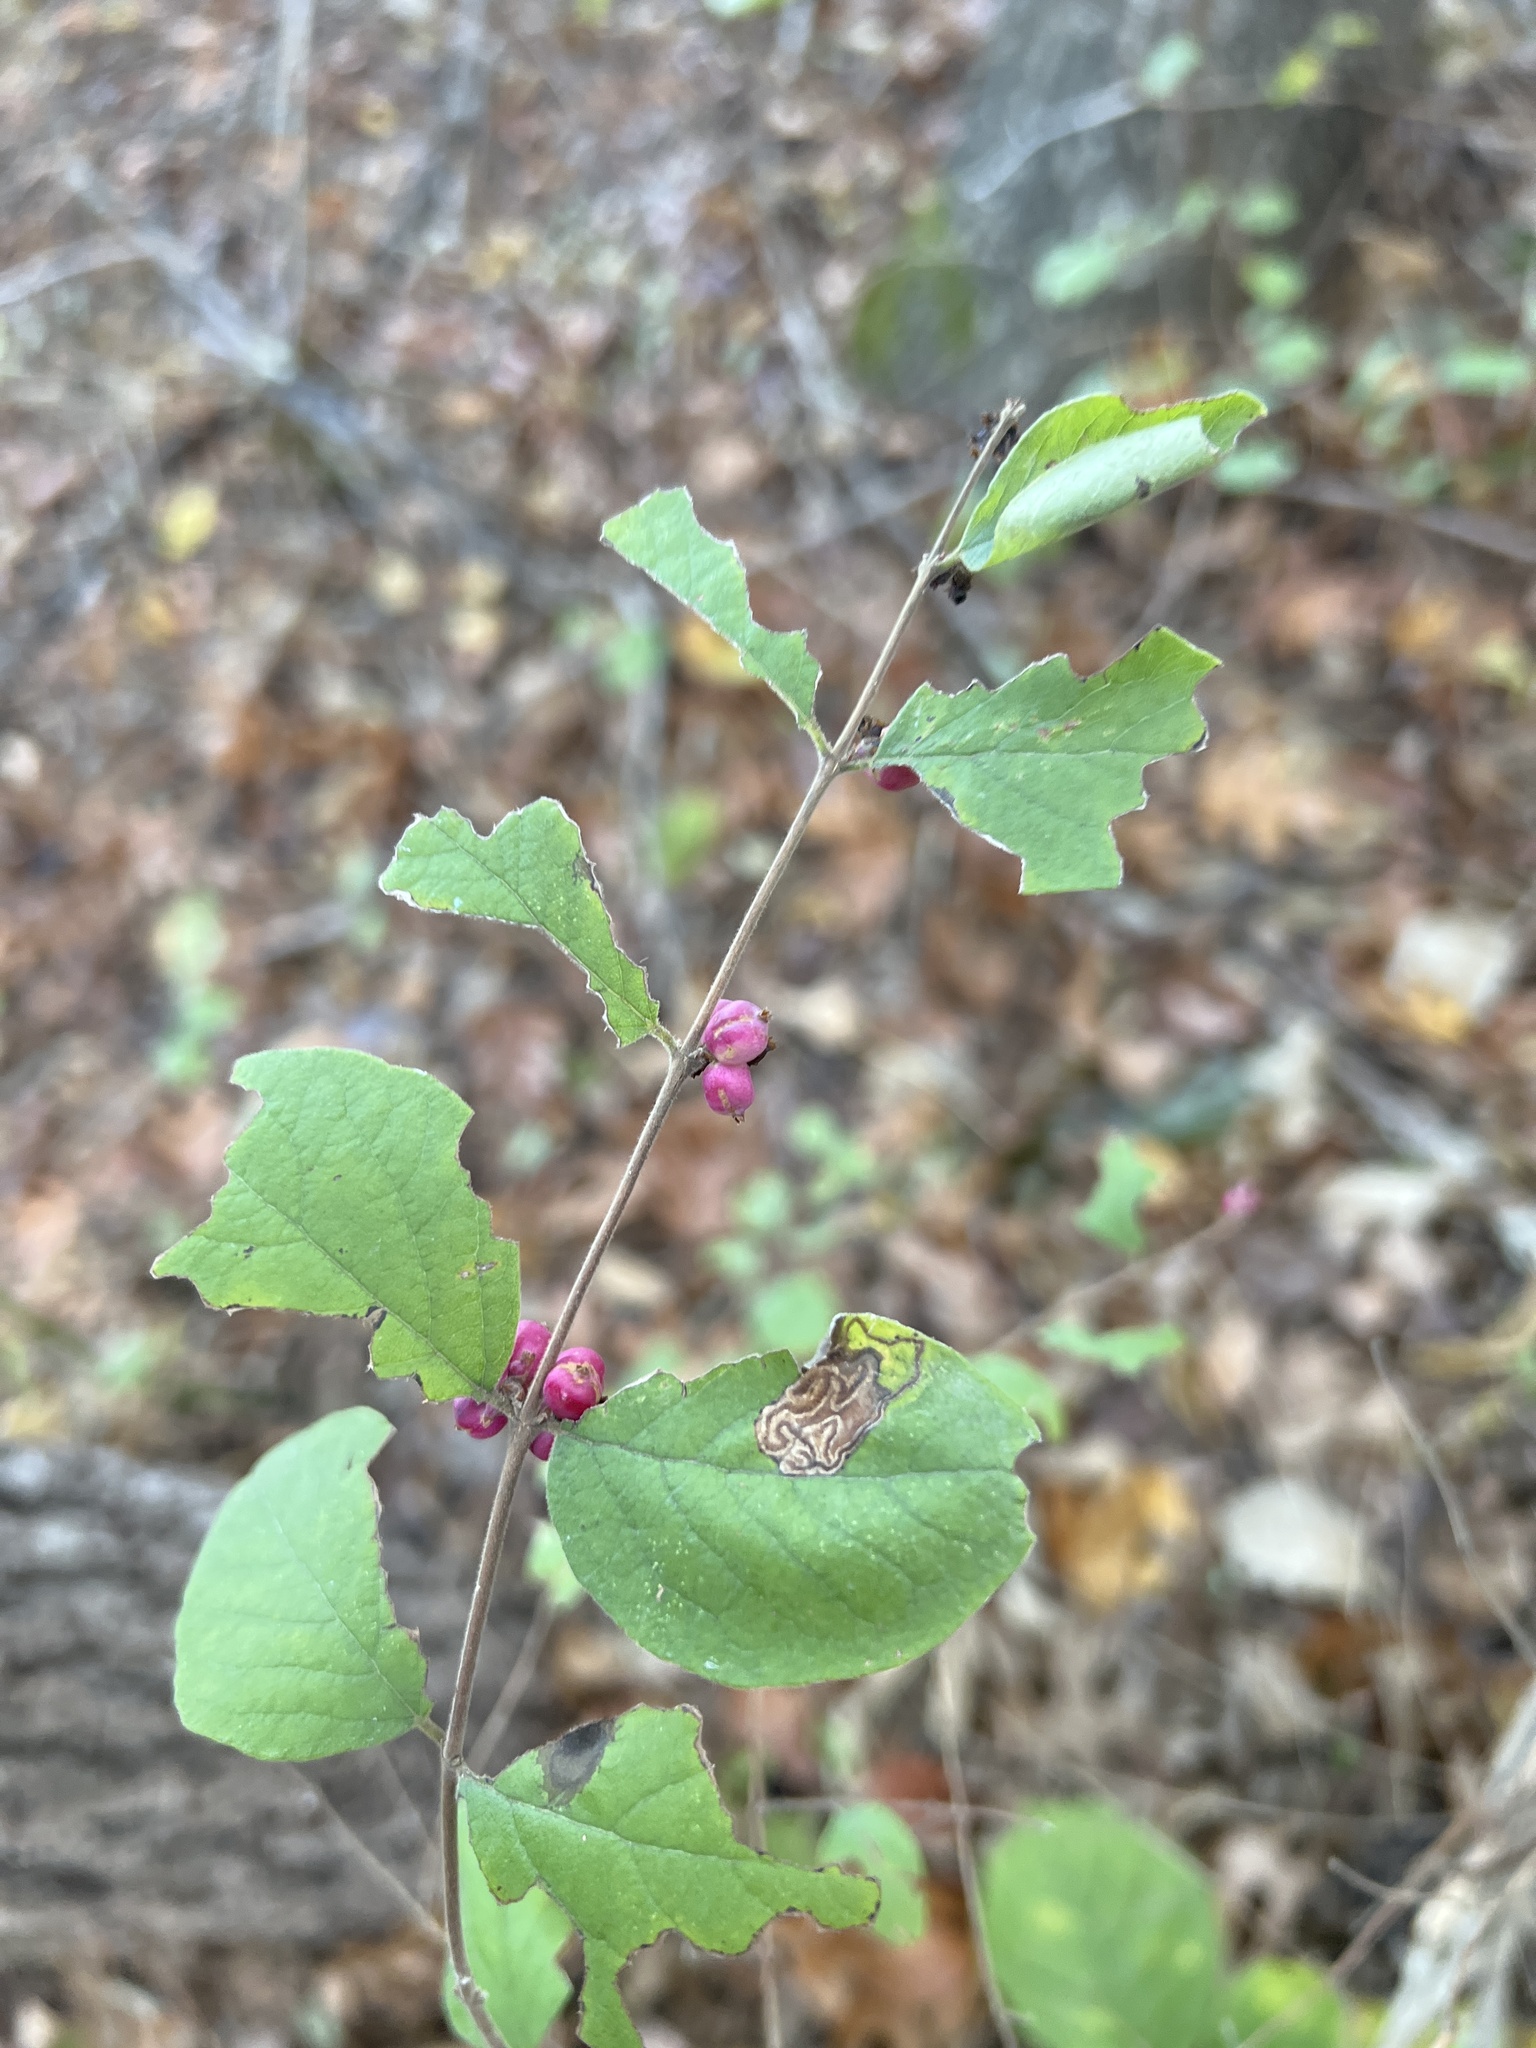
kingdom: Plantae
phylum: Tracheophyta
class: Magnoliopsida
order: Dipsacales
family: Caprifoliaceae
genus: Symphoricarpos
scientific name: Symphoricarpos orbiculatus
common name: Coralberry
